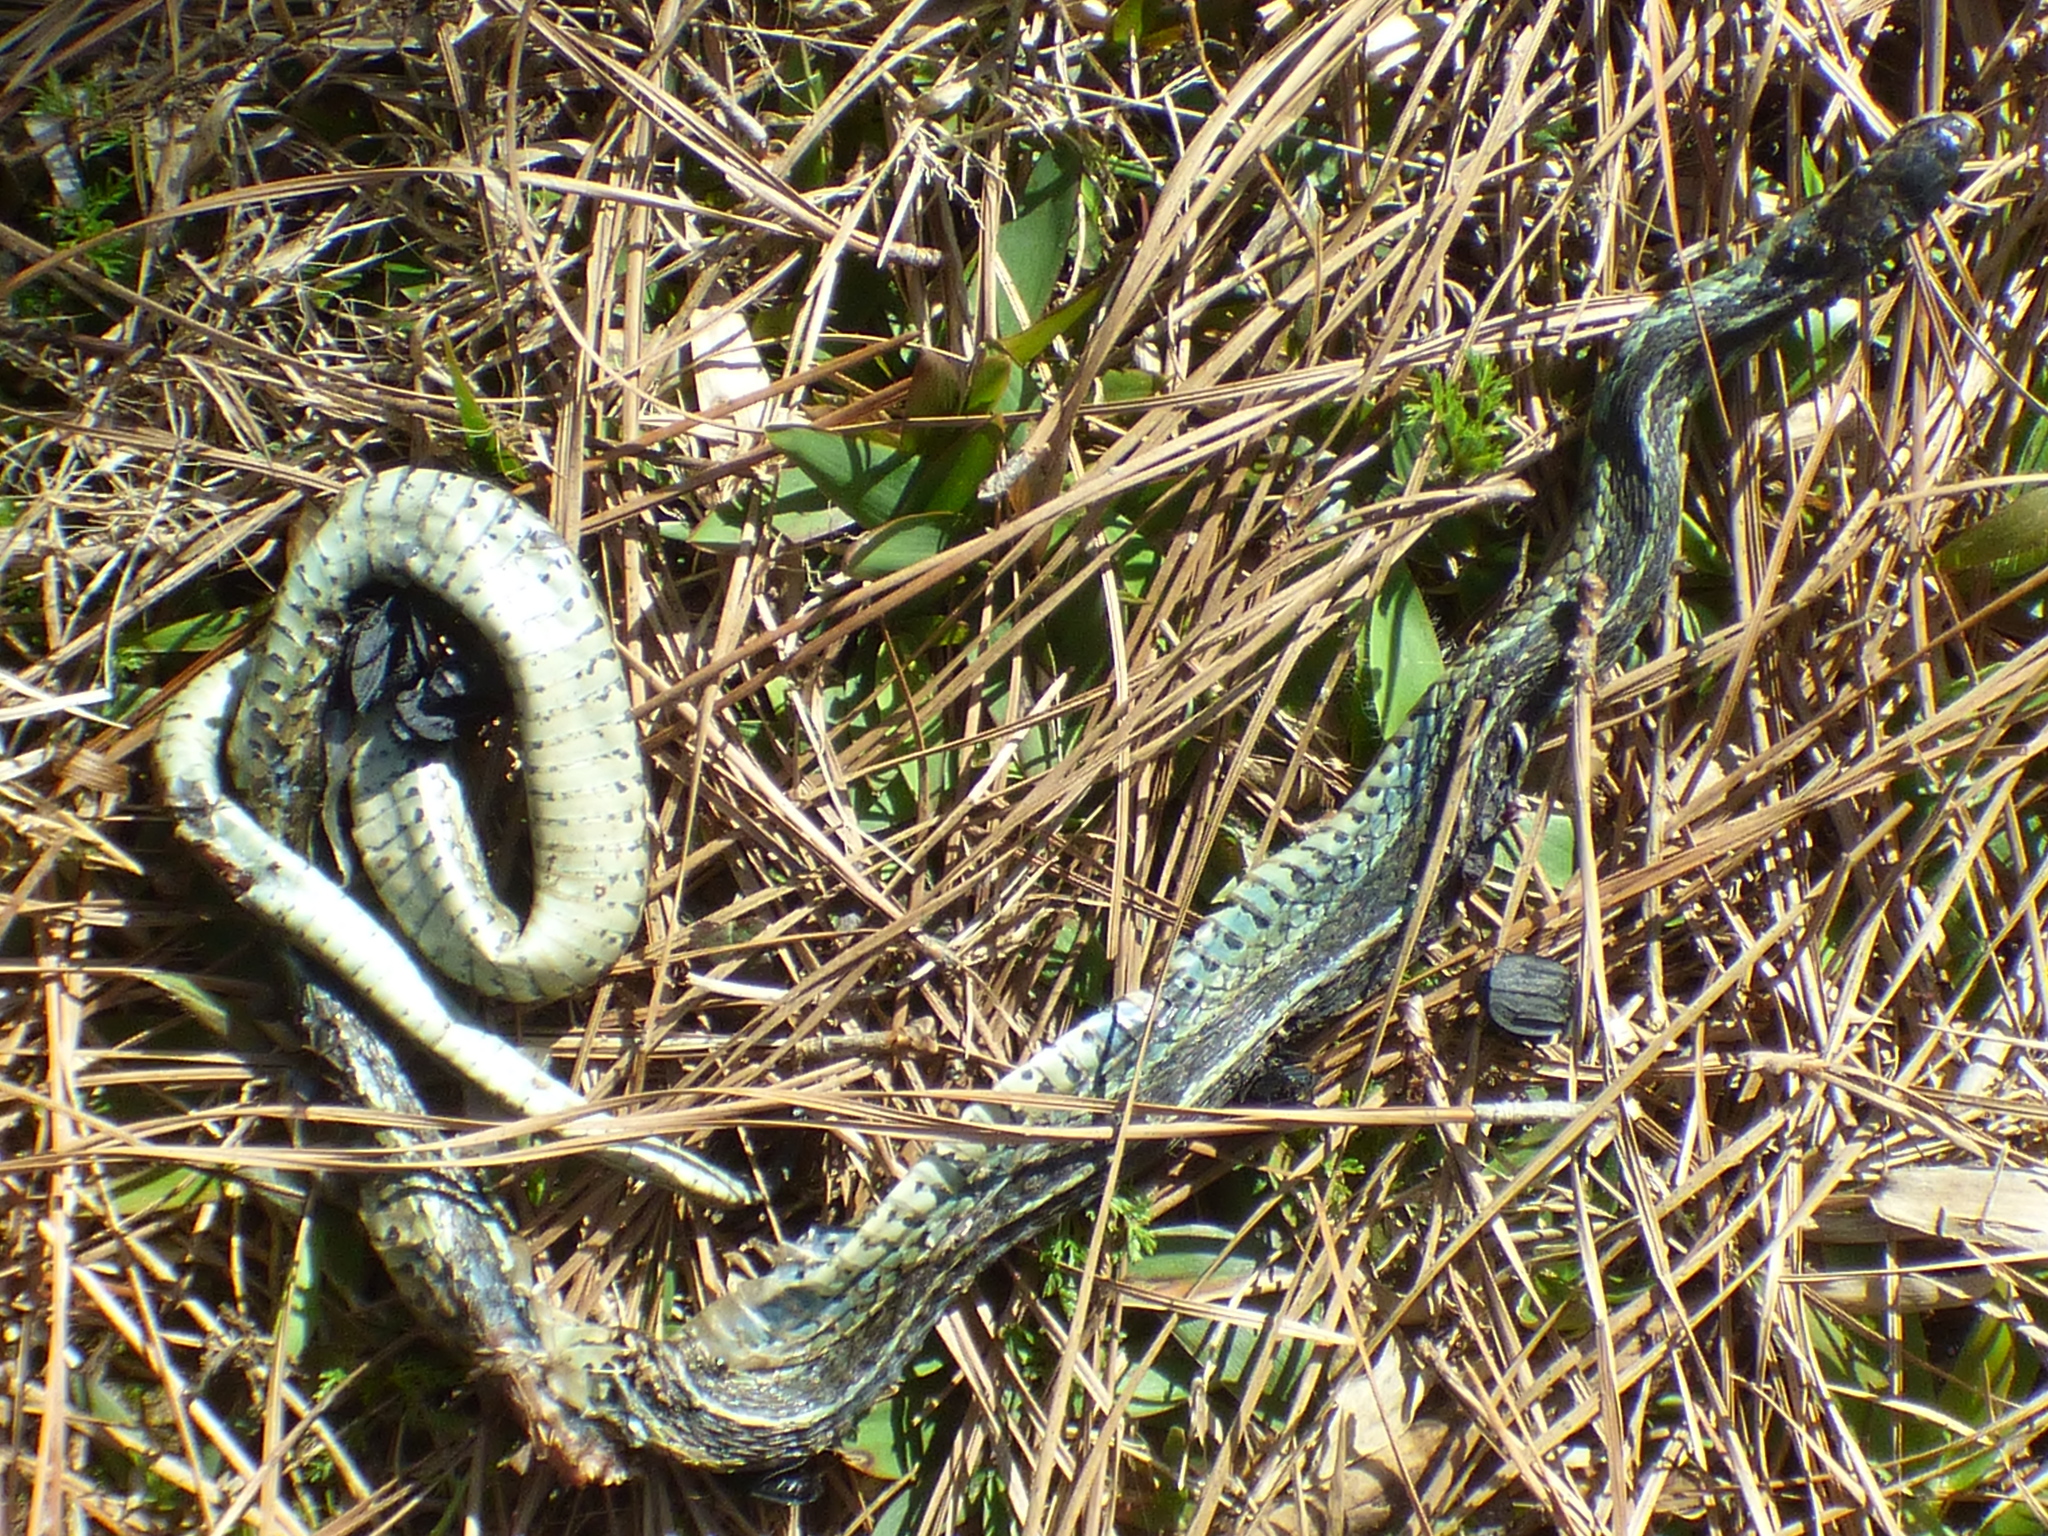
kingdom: Animalia
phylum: Chordata
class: Squamata
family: Colubridae
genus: Thamnophis
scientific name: Thamnophis sirtalis
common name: Common garter snake
